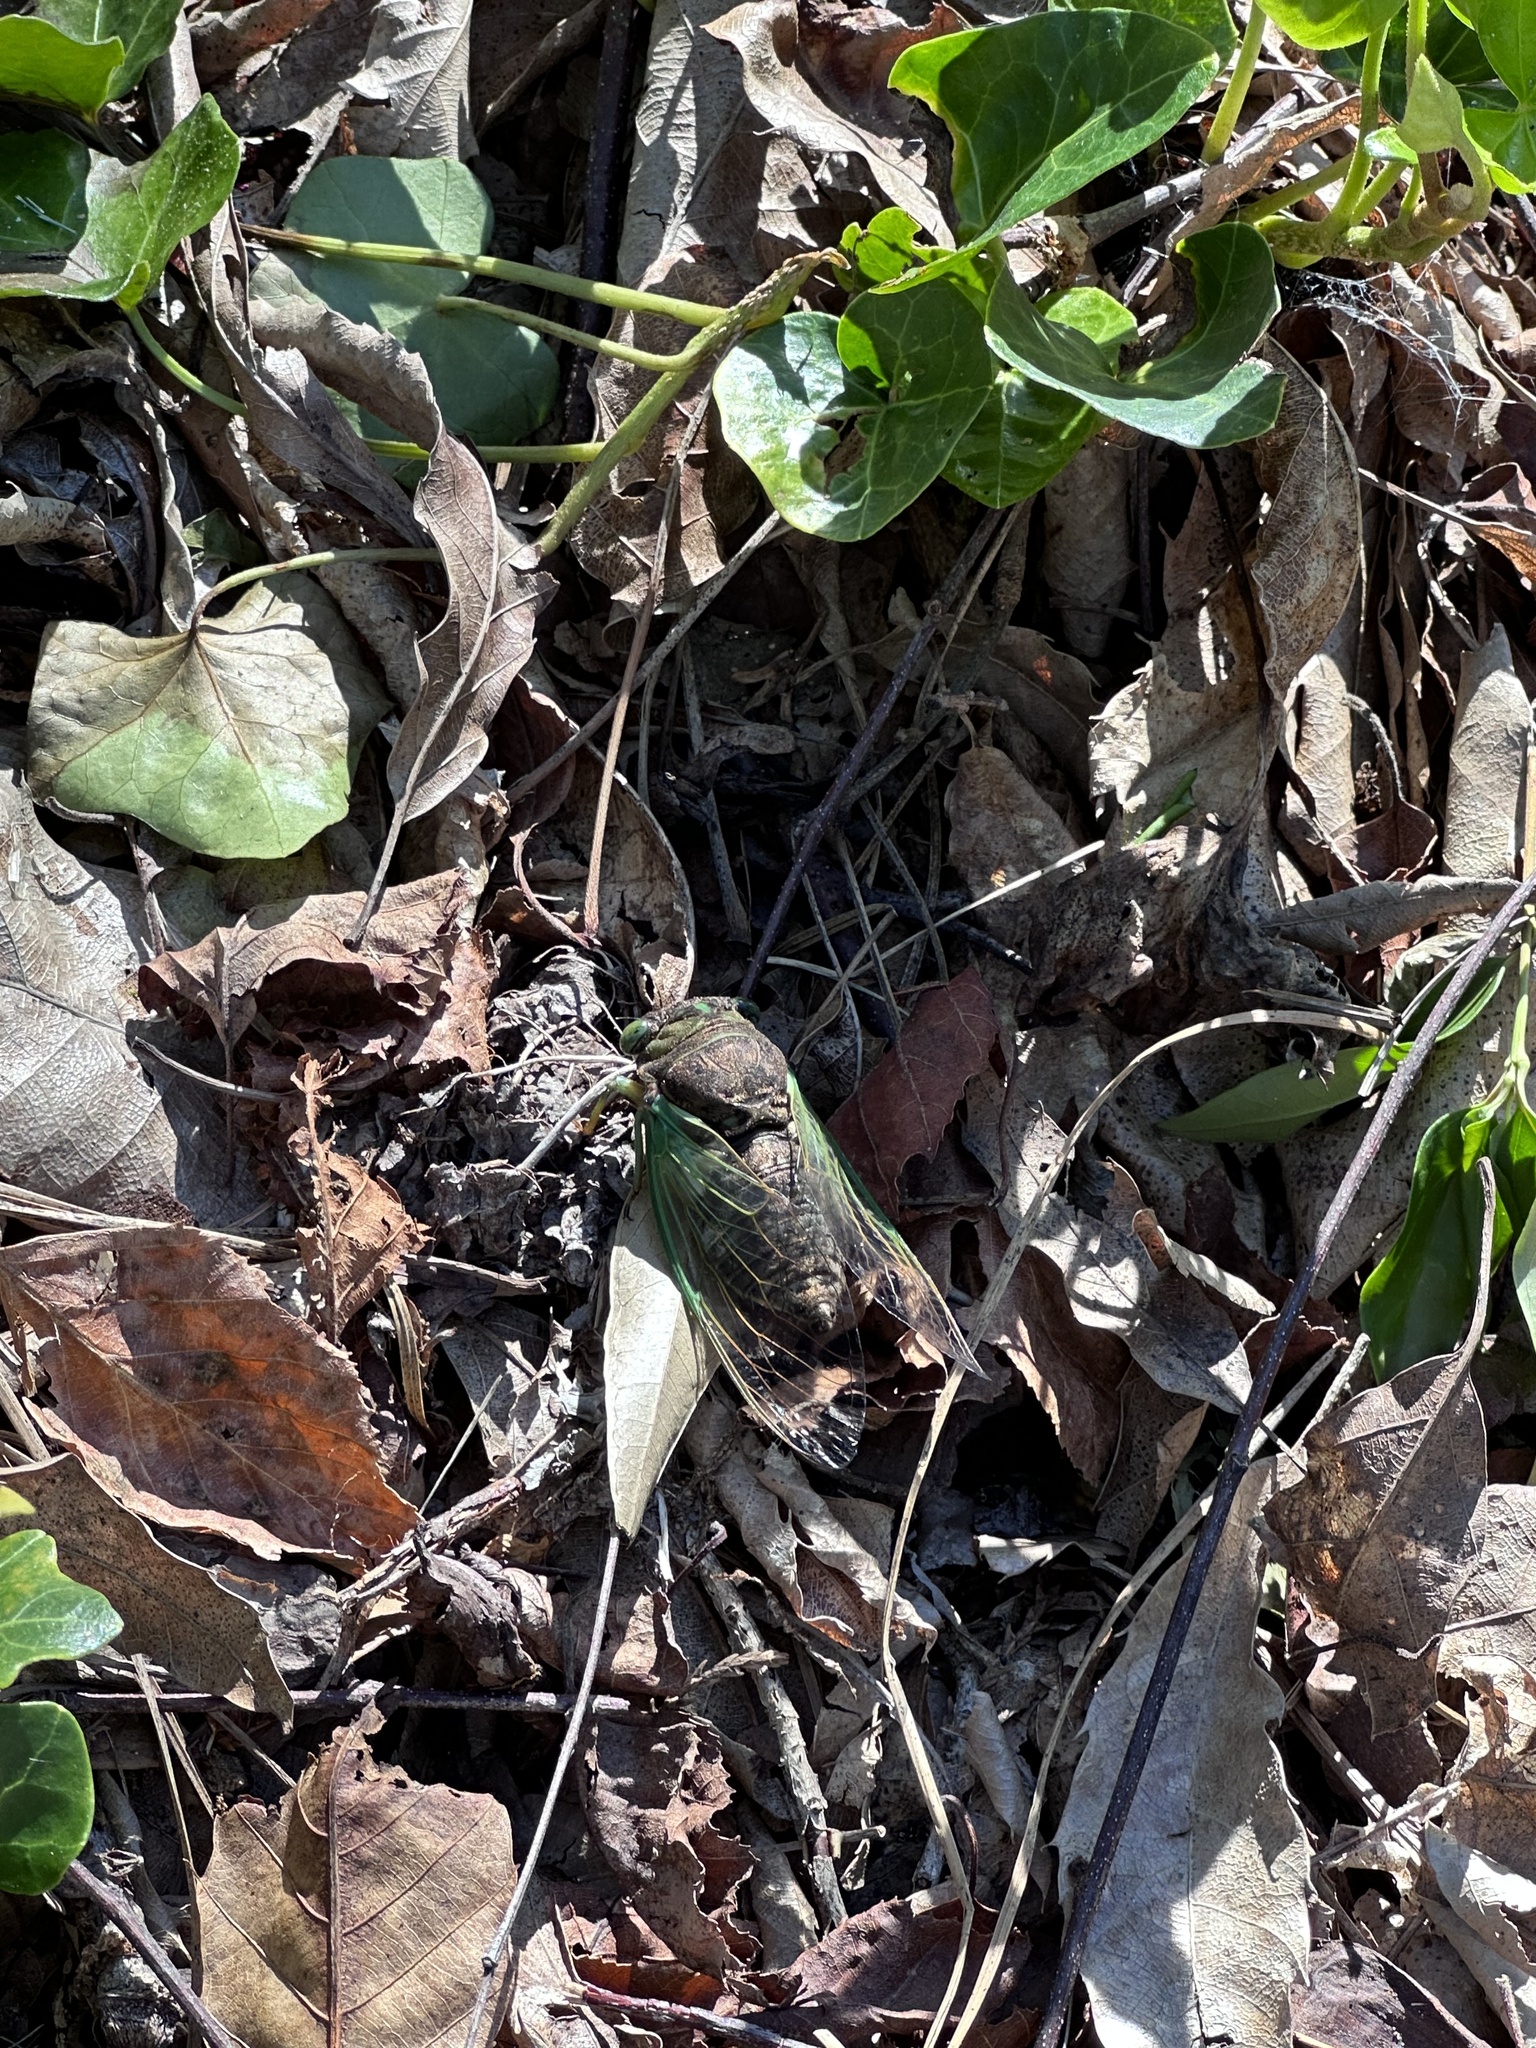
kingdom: Animalia
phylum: Arthropoda
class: Insecta
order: Hemiptera
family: Cicadidae
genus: Neotibicen
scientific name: Neotibicen tibicen
